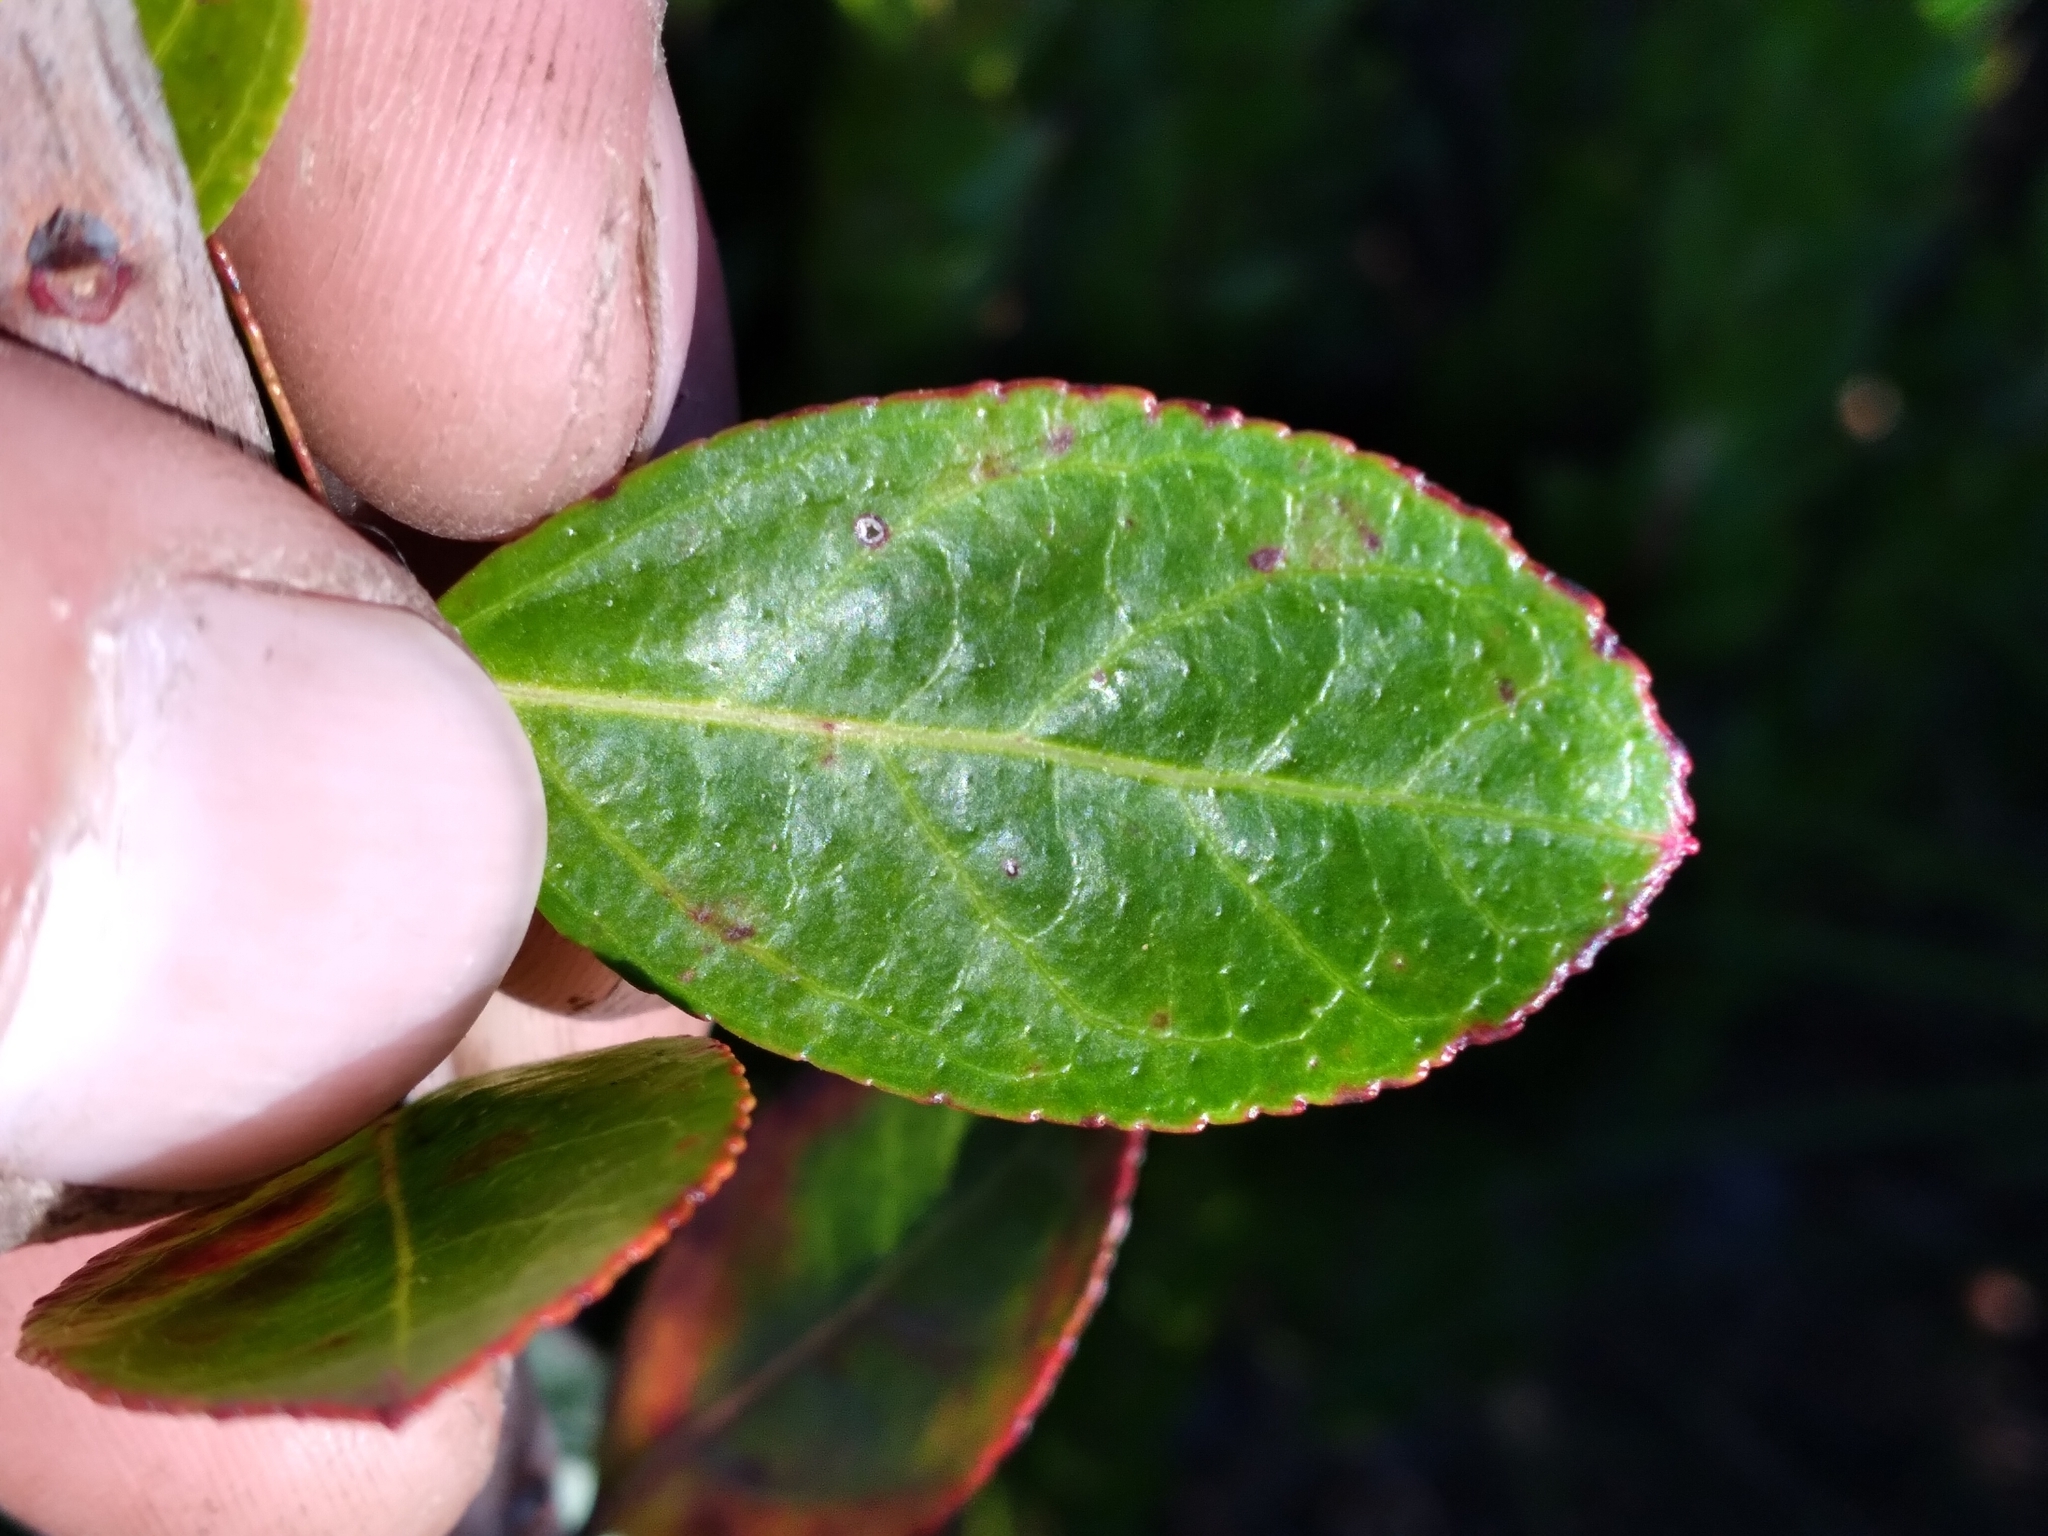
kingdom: Plantae
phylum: Tracheophyta
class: Magnoliopsida
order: Ericales
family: Ericaceae
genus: Eubotrys
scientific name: Eubotrys racemosa
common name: Fetterbush
